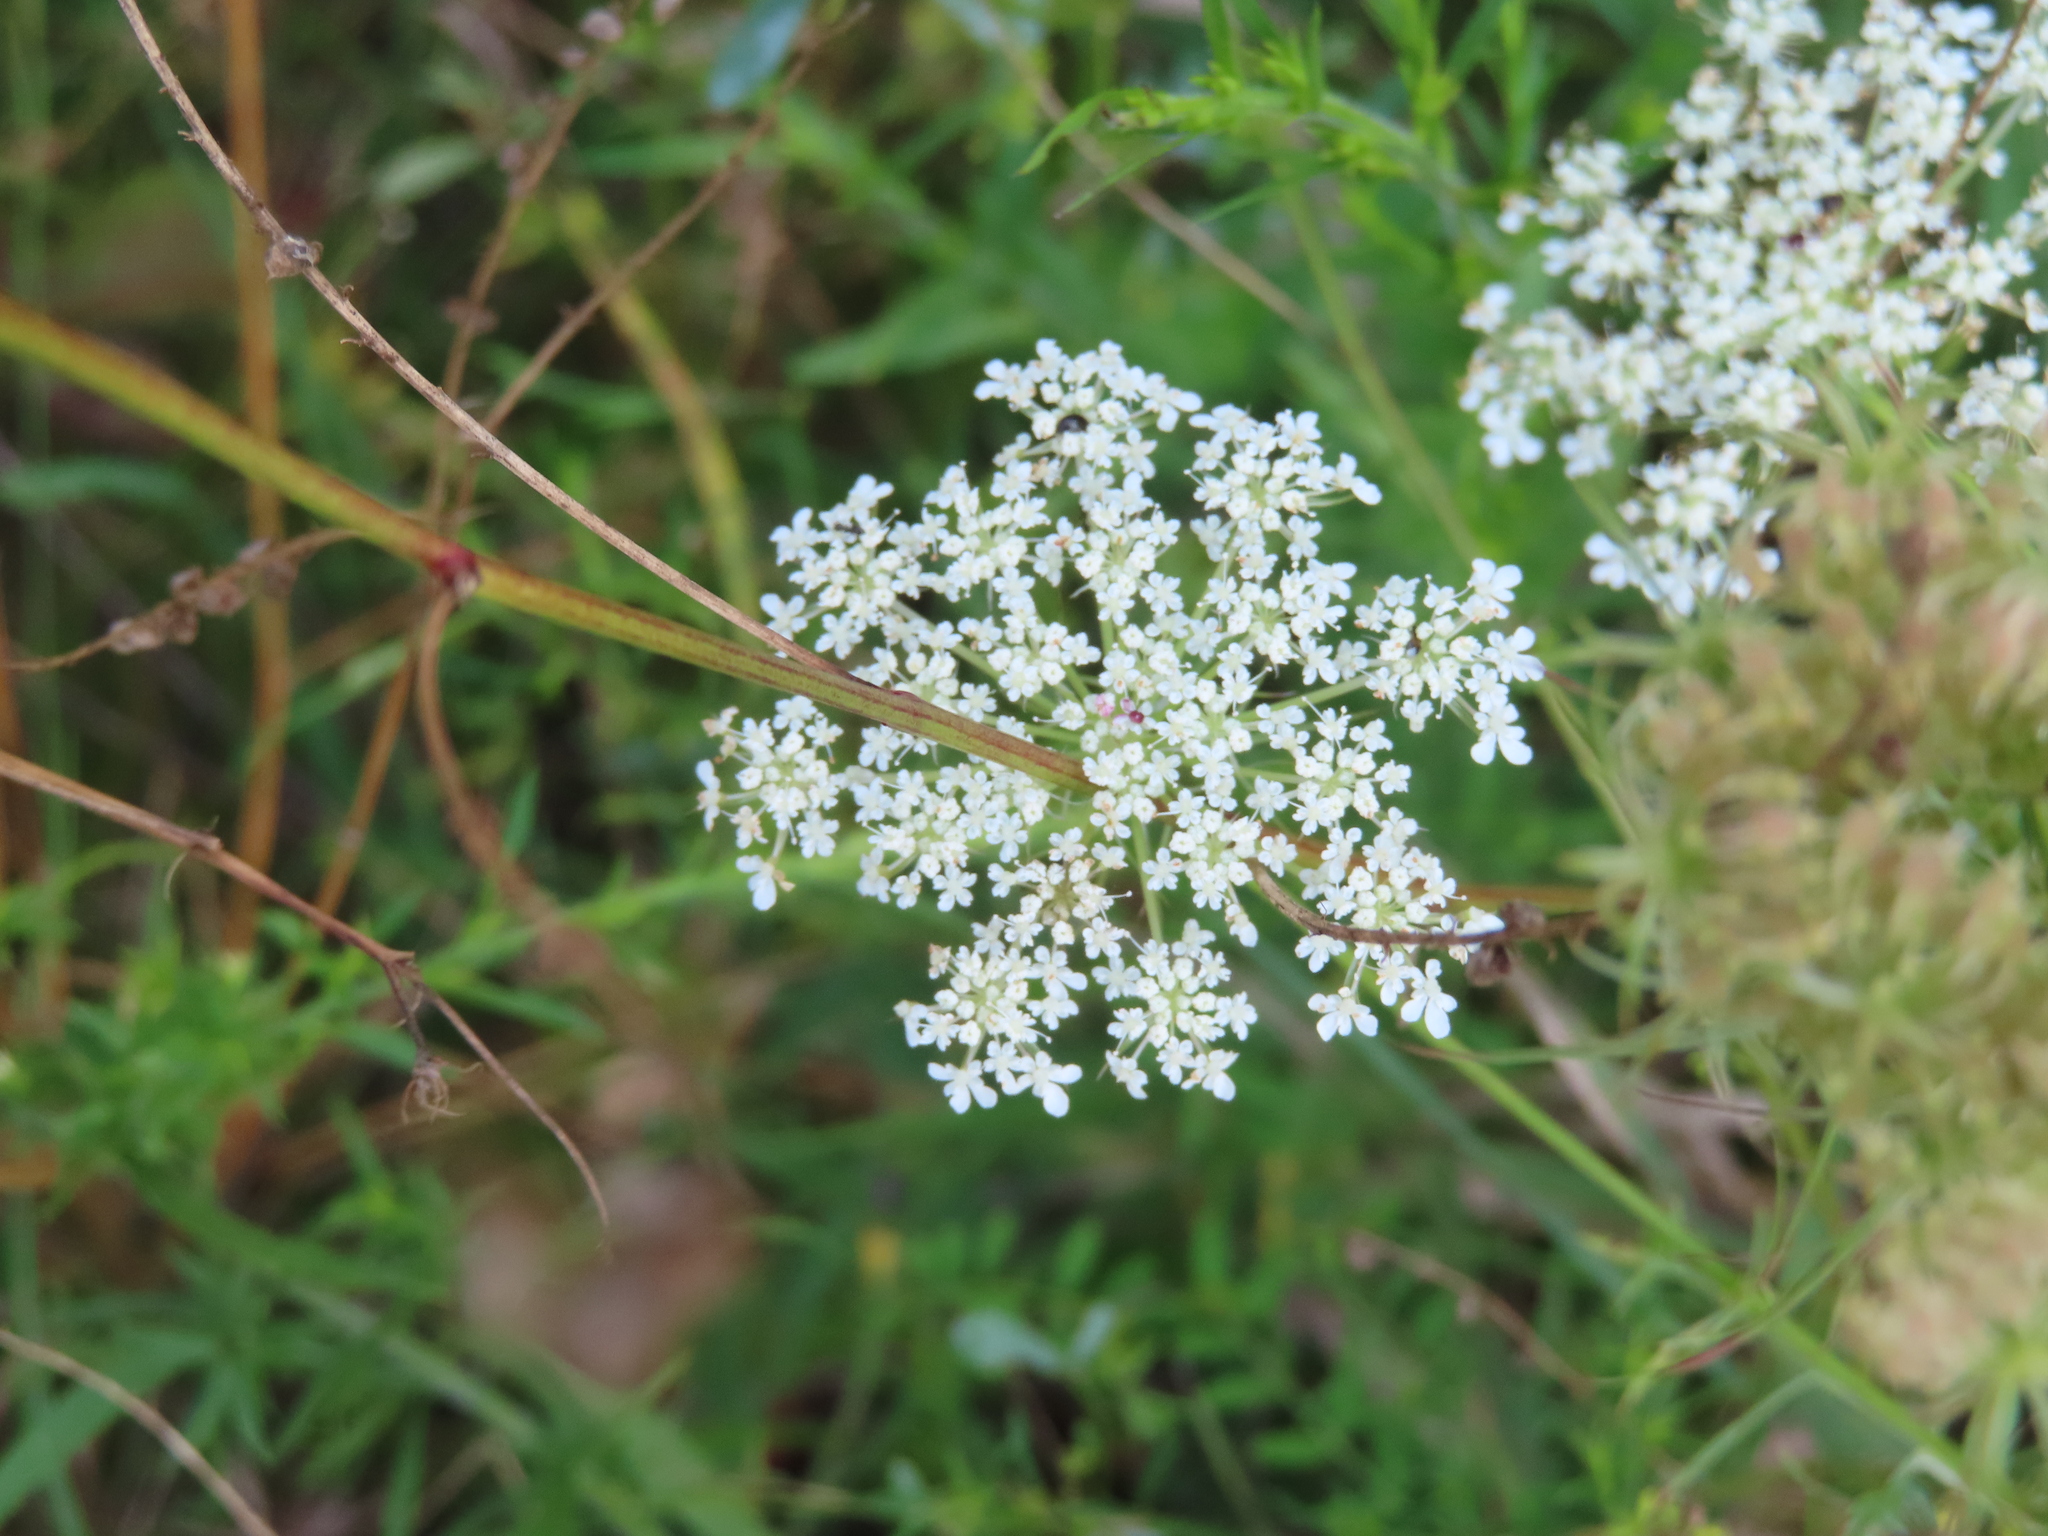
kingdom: Plantae
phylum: Tracheophyta
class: Magnoliopsida
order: Apiales
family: Apiaceae
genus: Daucus
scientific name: Daucus carota
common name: Wild carrot
